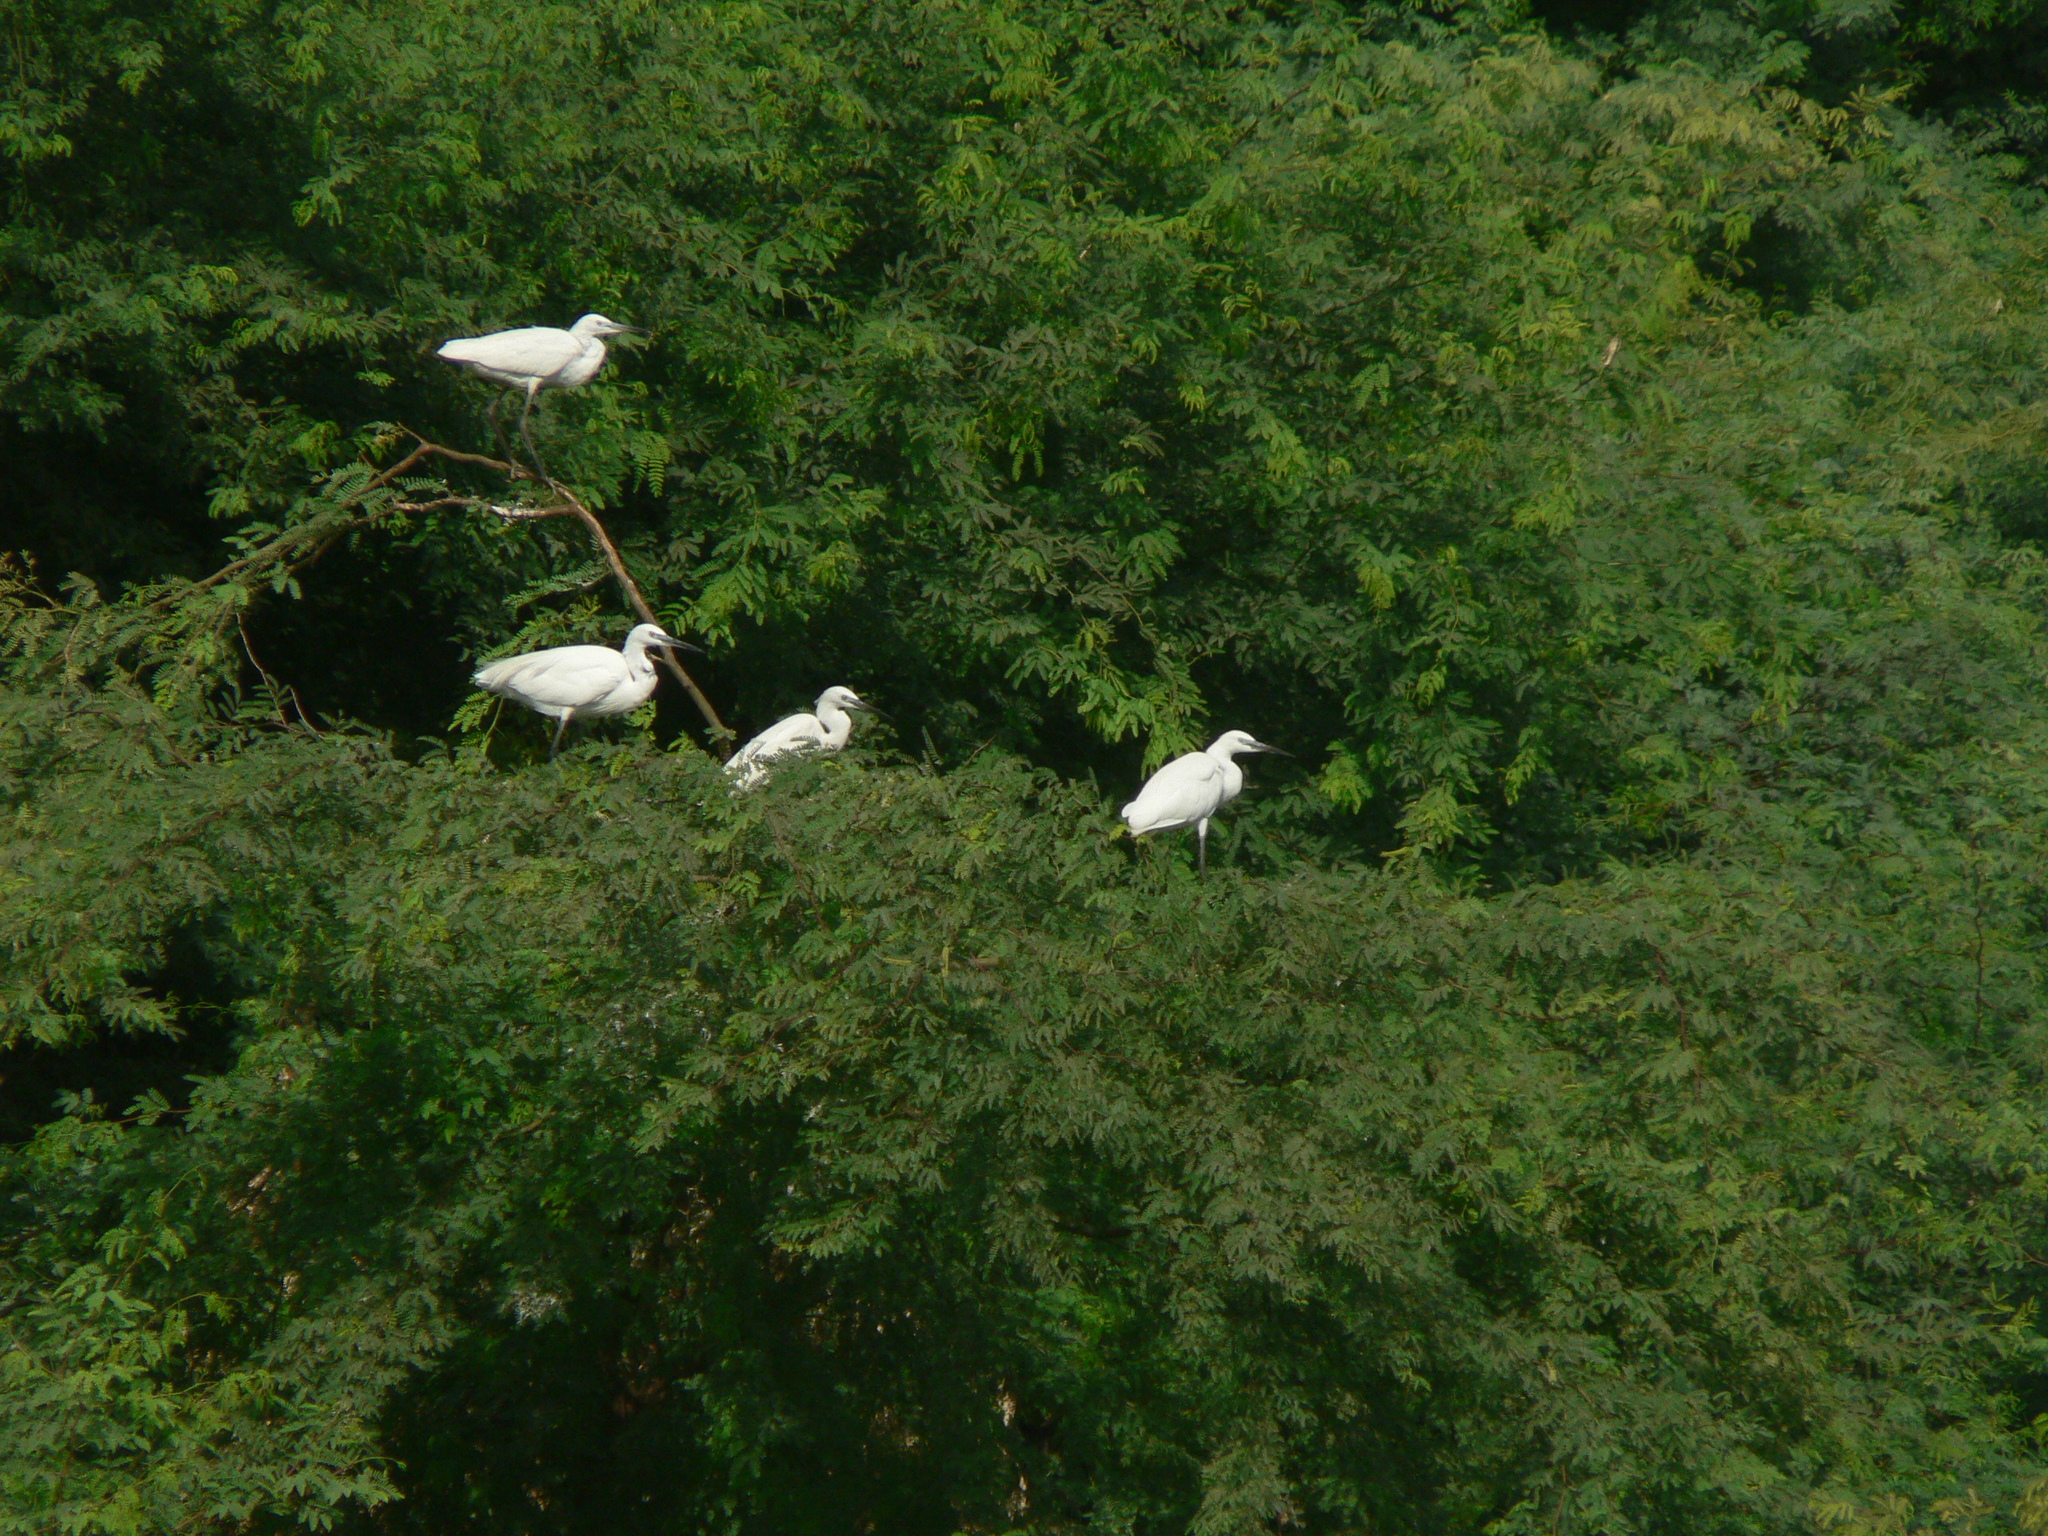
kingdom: Animalia
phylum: Chordata
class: Aves
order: Pelecaniformes
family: Ardeidae
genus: Egretta
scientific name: Egretta garzetta
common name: Little egret
